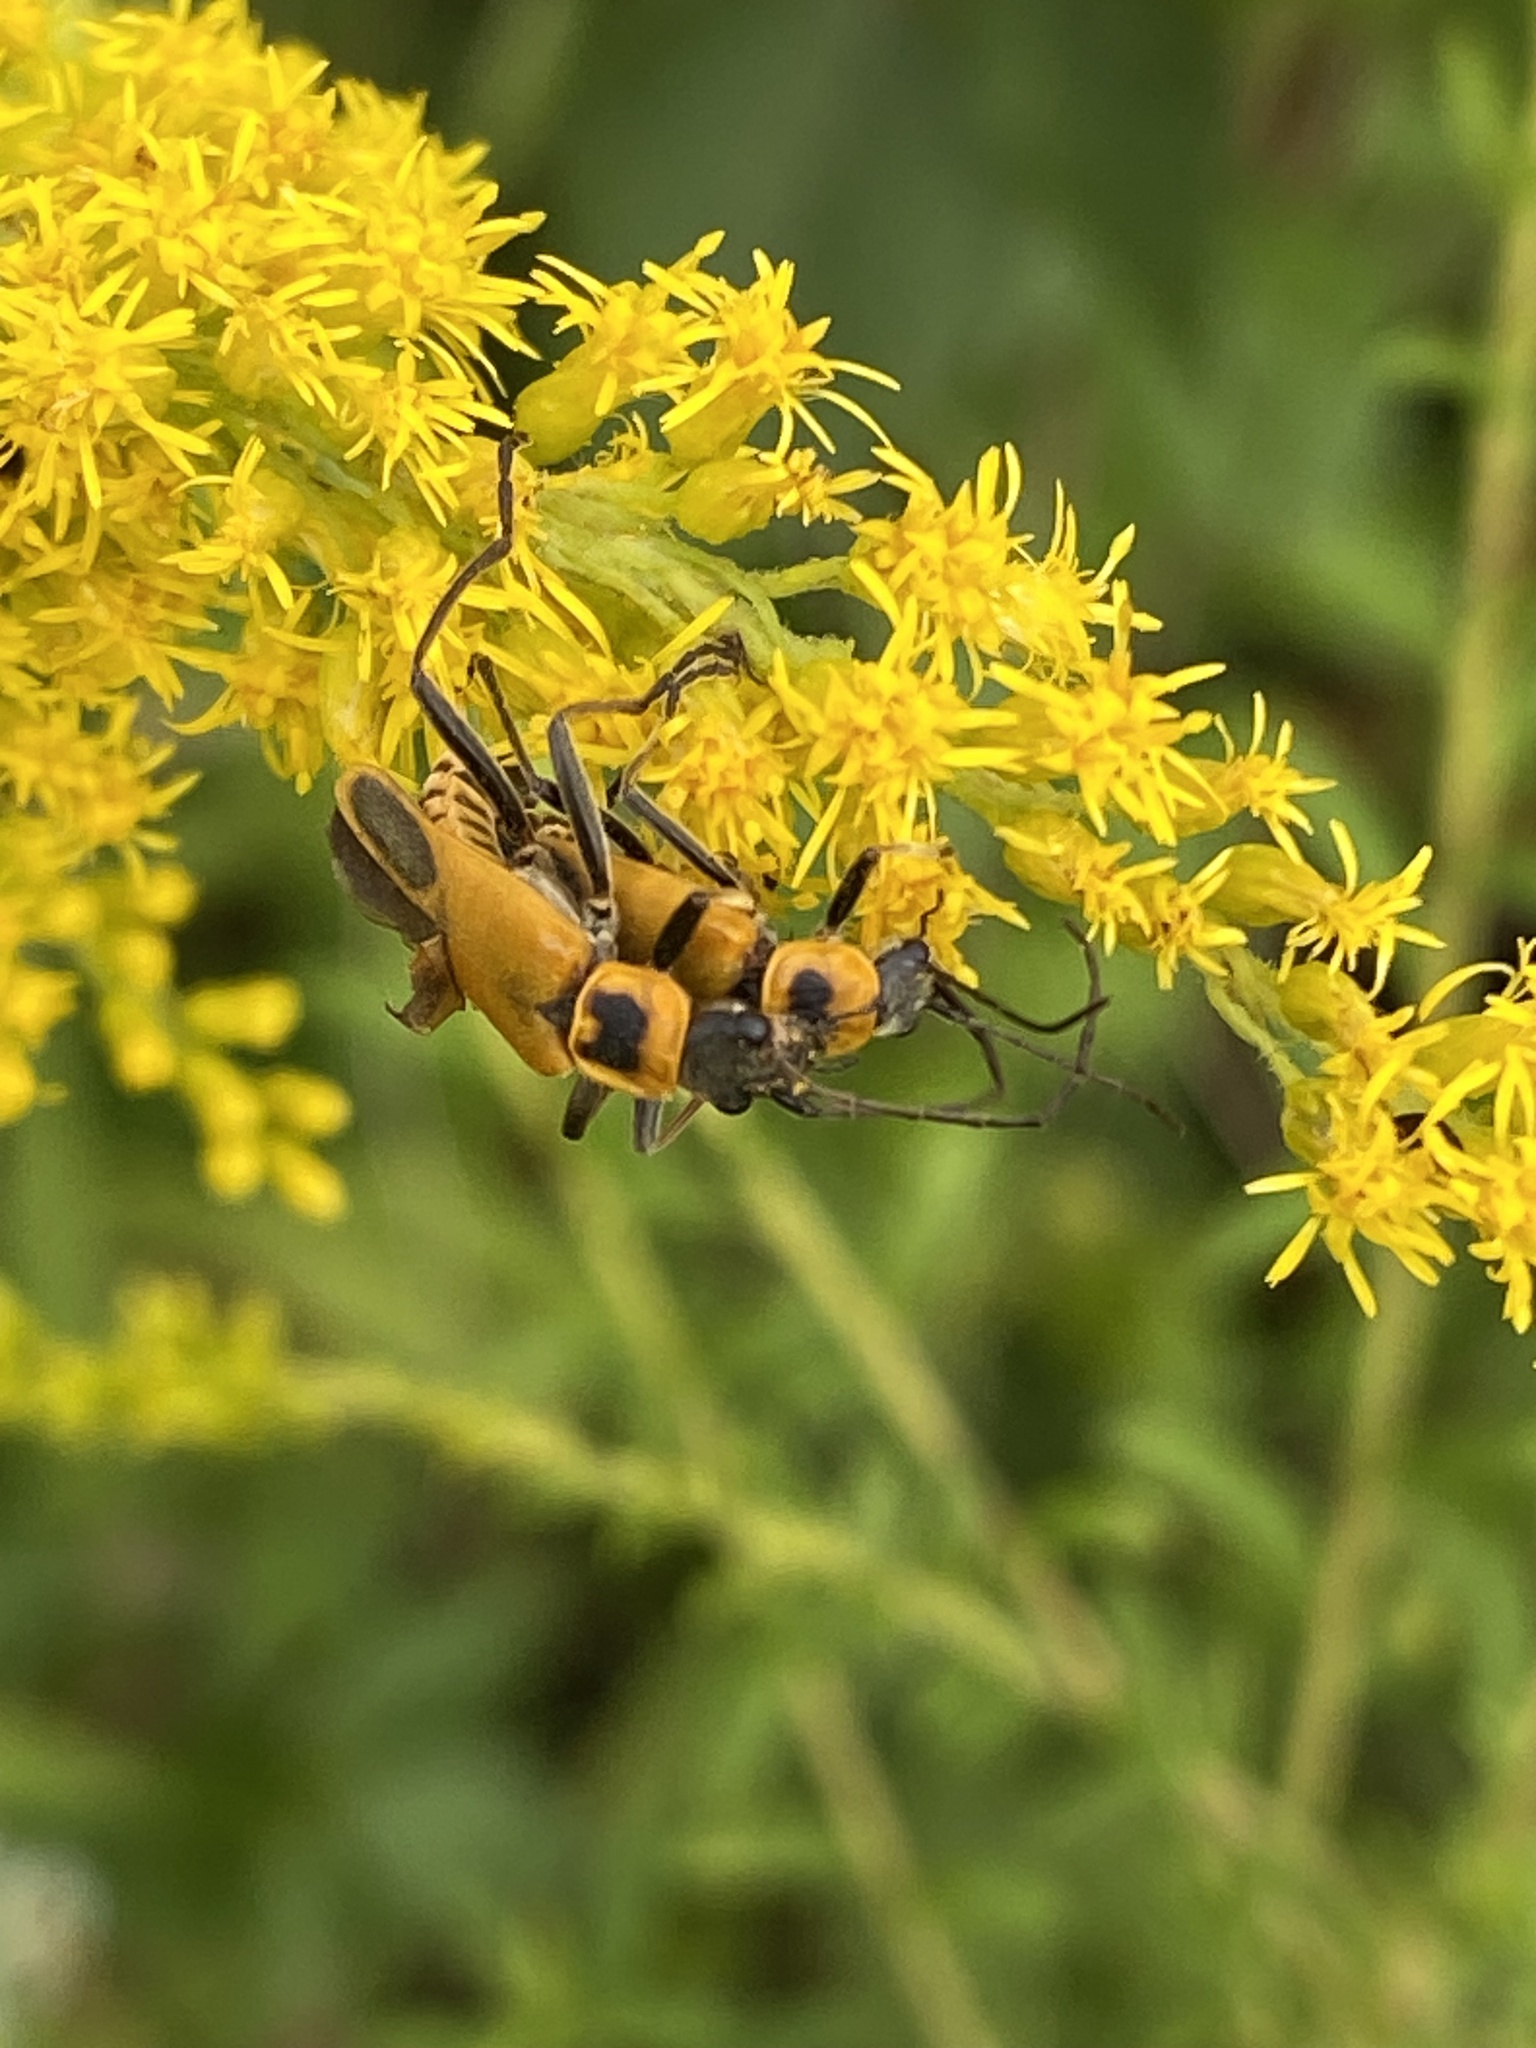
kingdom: Animalia
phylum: Arthropoda
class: Insecta
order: Coleoptera
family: Cantharidae
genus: Chauliognathus
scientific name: Chauliognathus pensylvanicus
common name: Goldenrod soldier beetle
